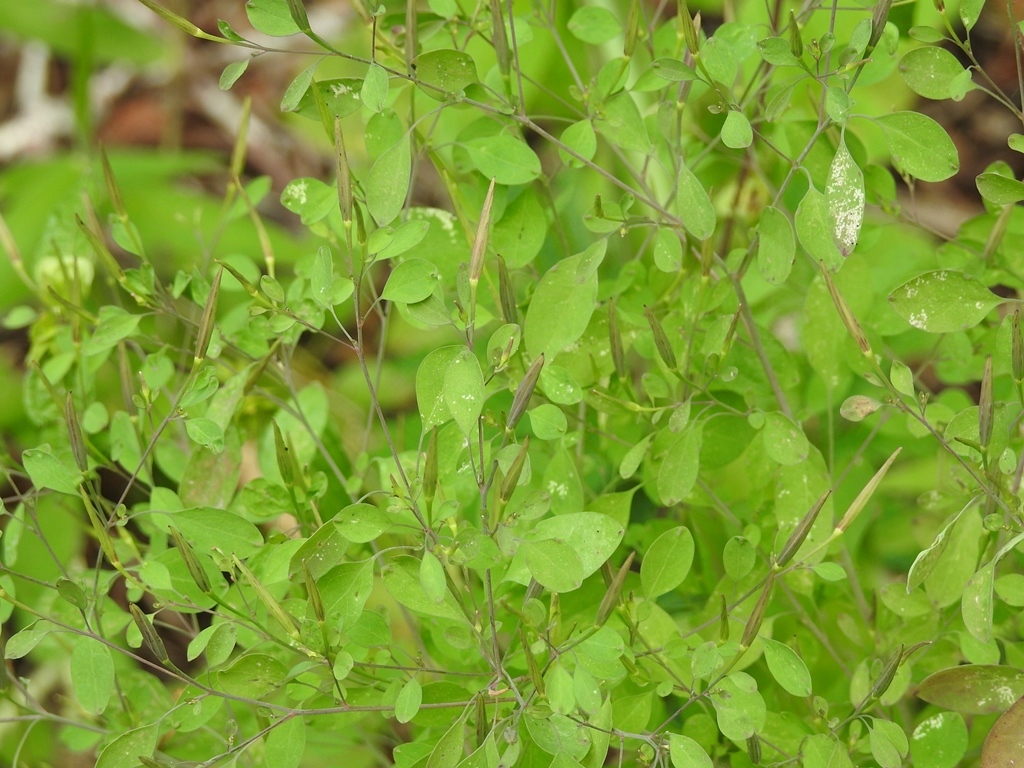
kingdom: Plantae
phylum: Tracheophyta
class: Magnoliopsida
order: Asterales
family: Asteraceae
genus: Porophyllum
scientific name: Porophyllum ruderale
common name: Yerba porosa
